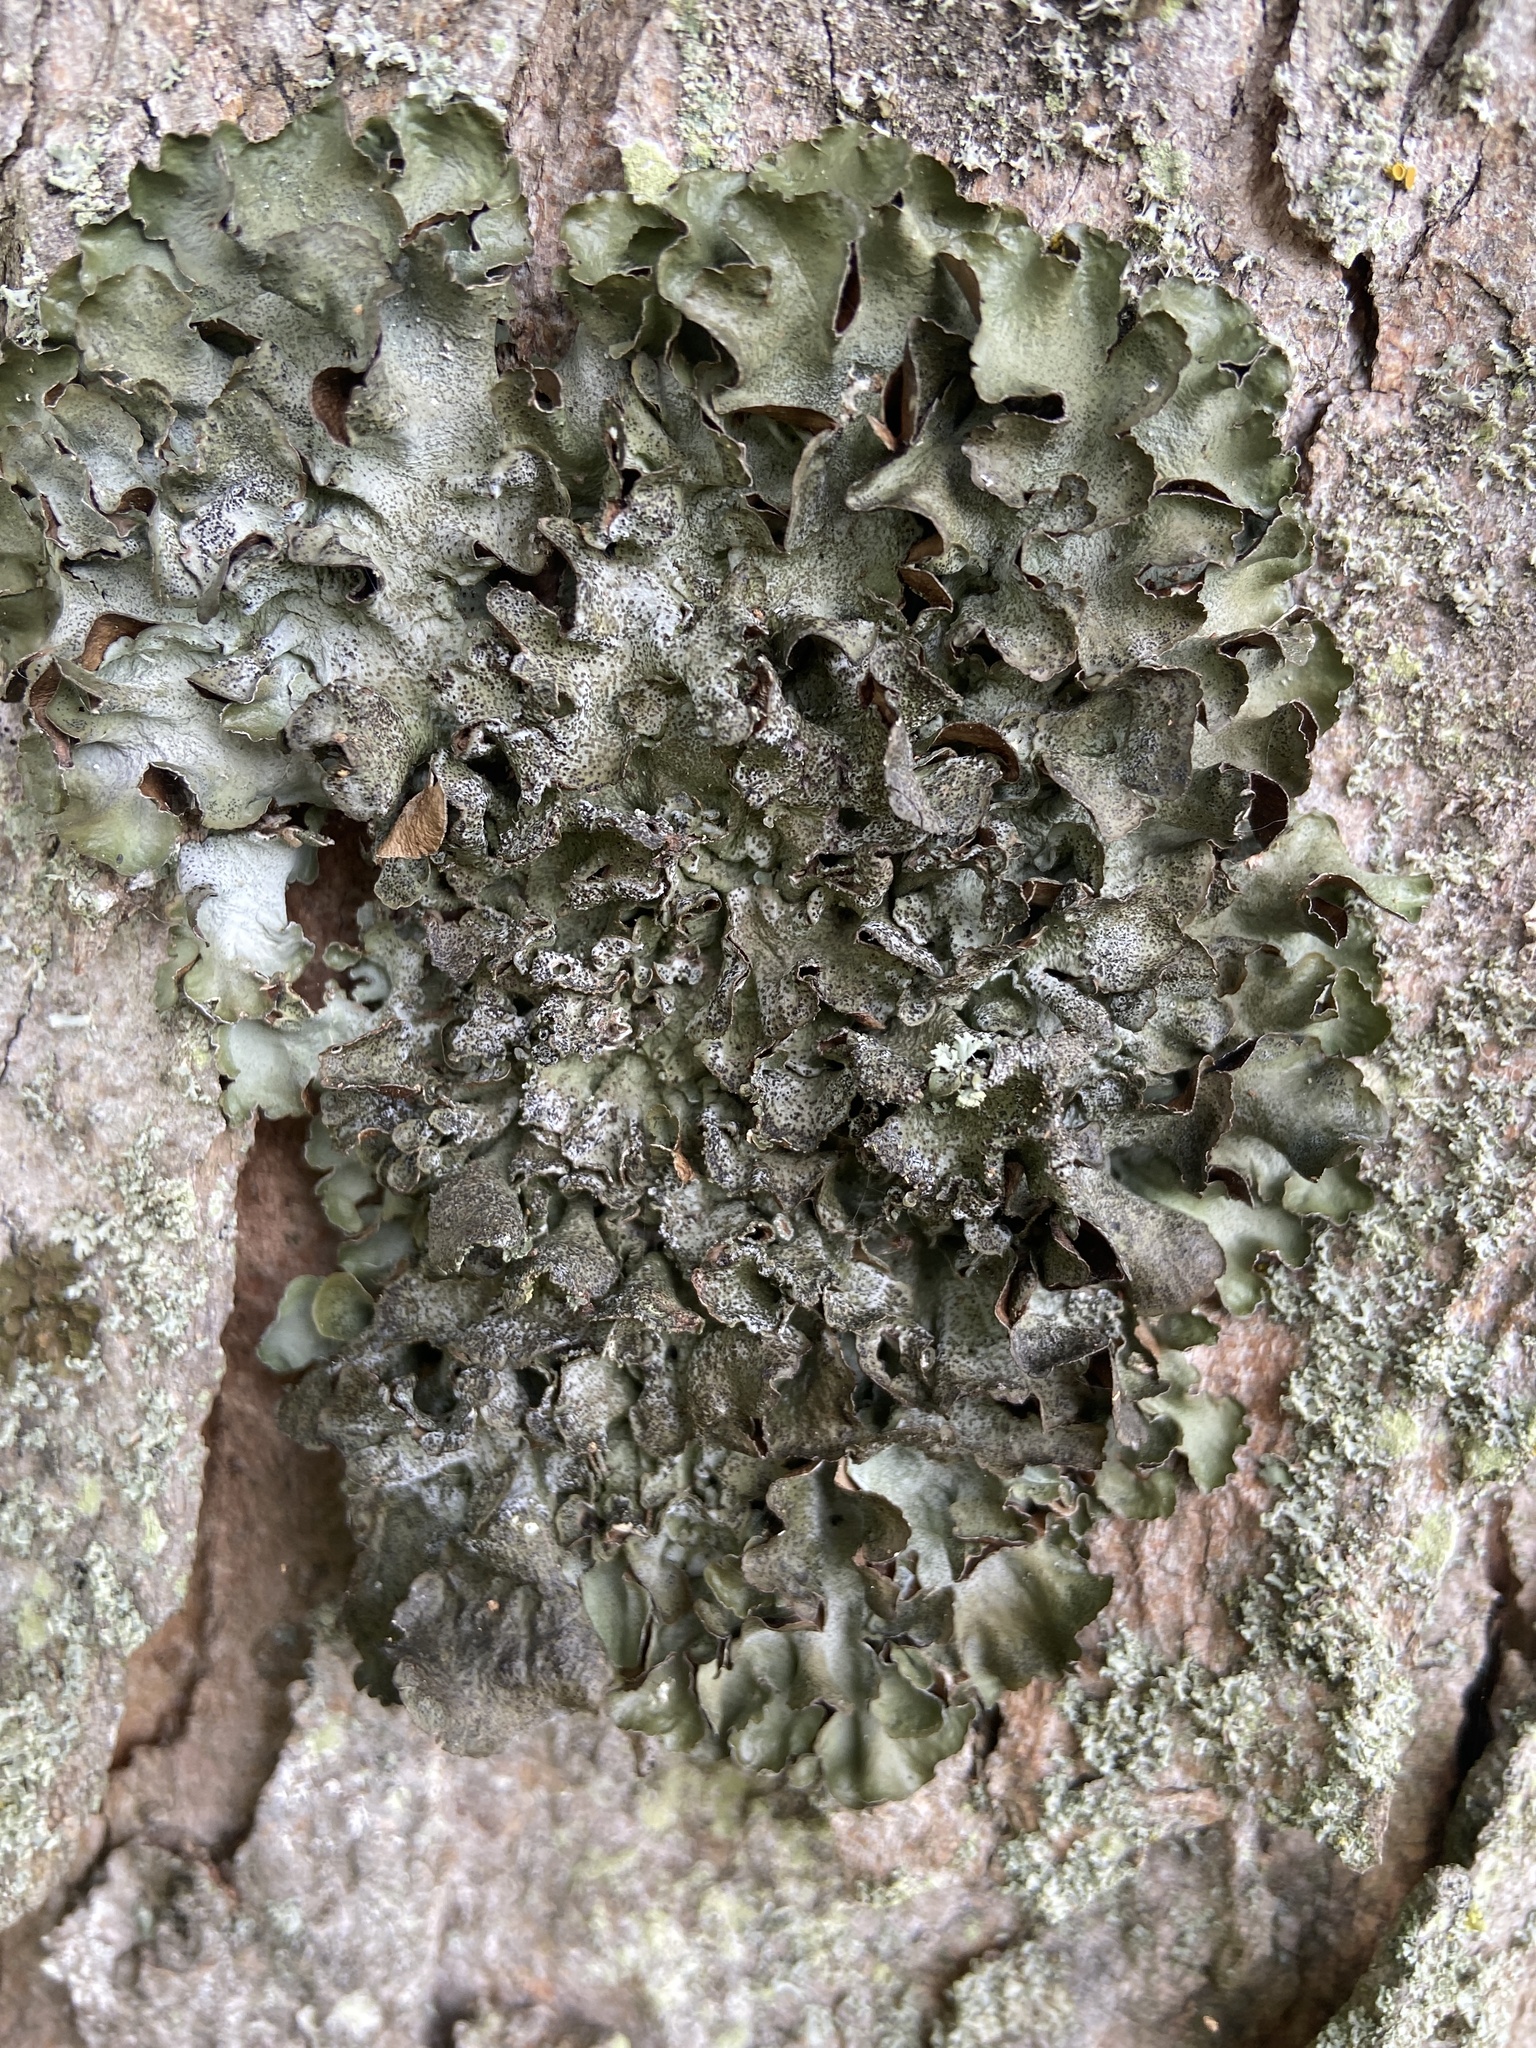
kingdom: Fungi
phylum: Ascomycota
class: Lecanoromycetes
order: Lecanorales
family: Parmeliaceae
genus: Pleurosticta
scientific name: Pleurosticta acetabulum
